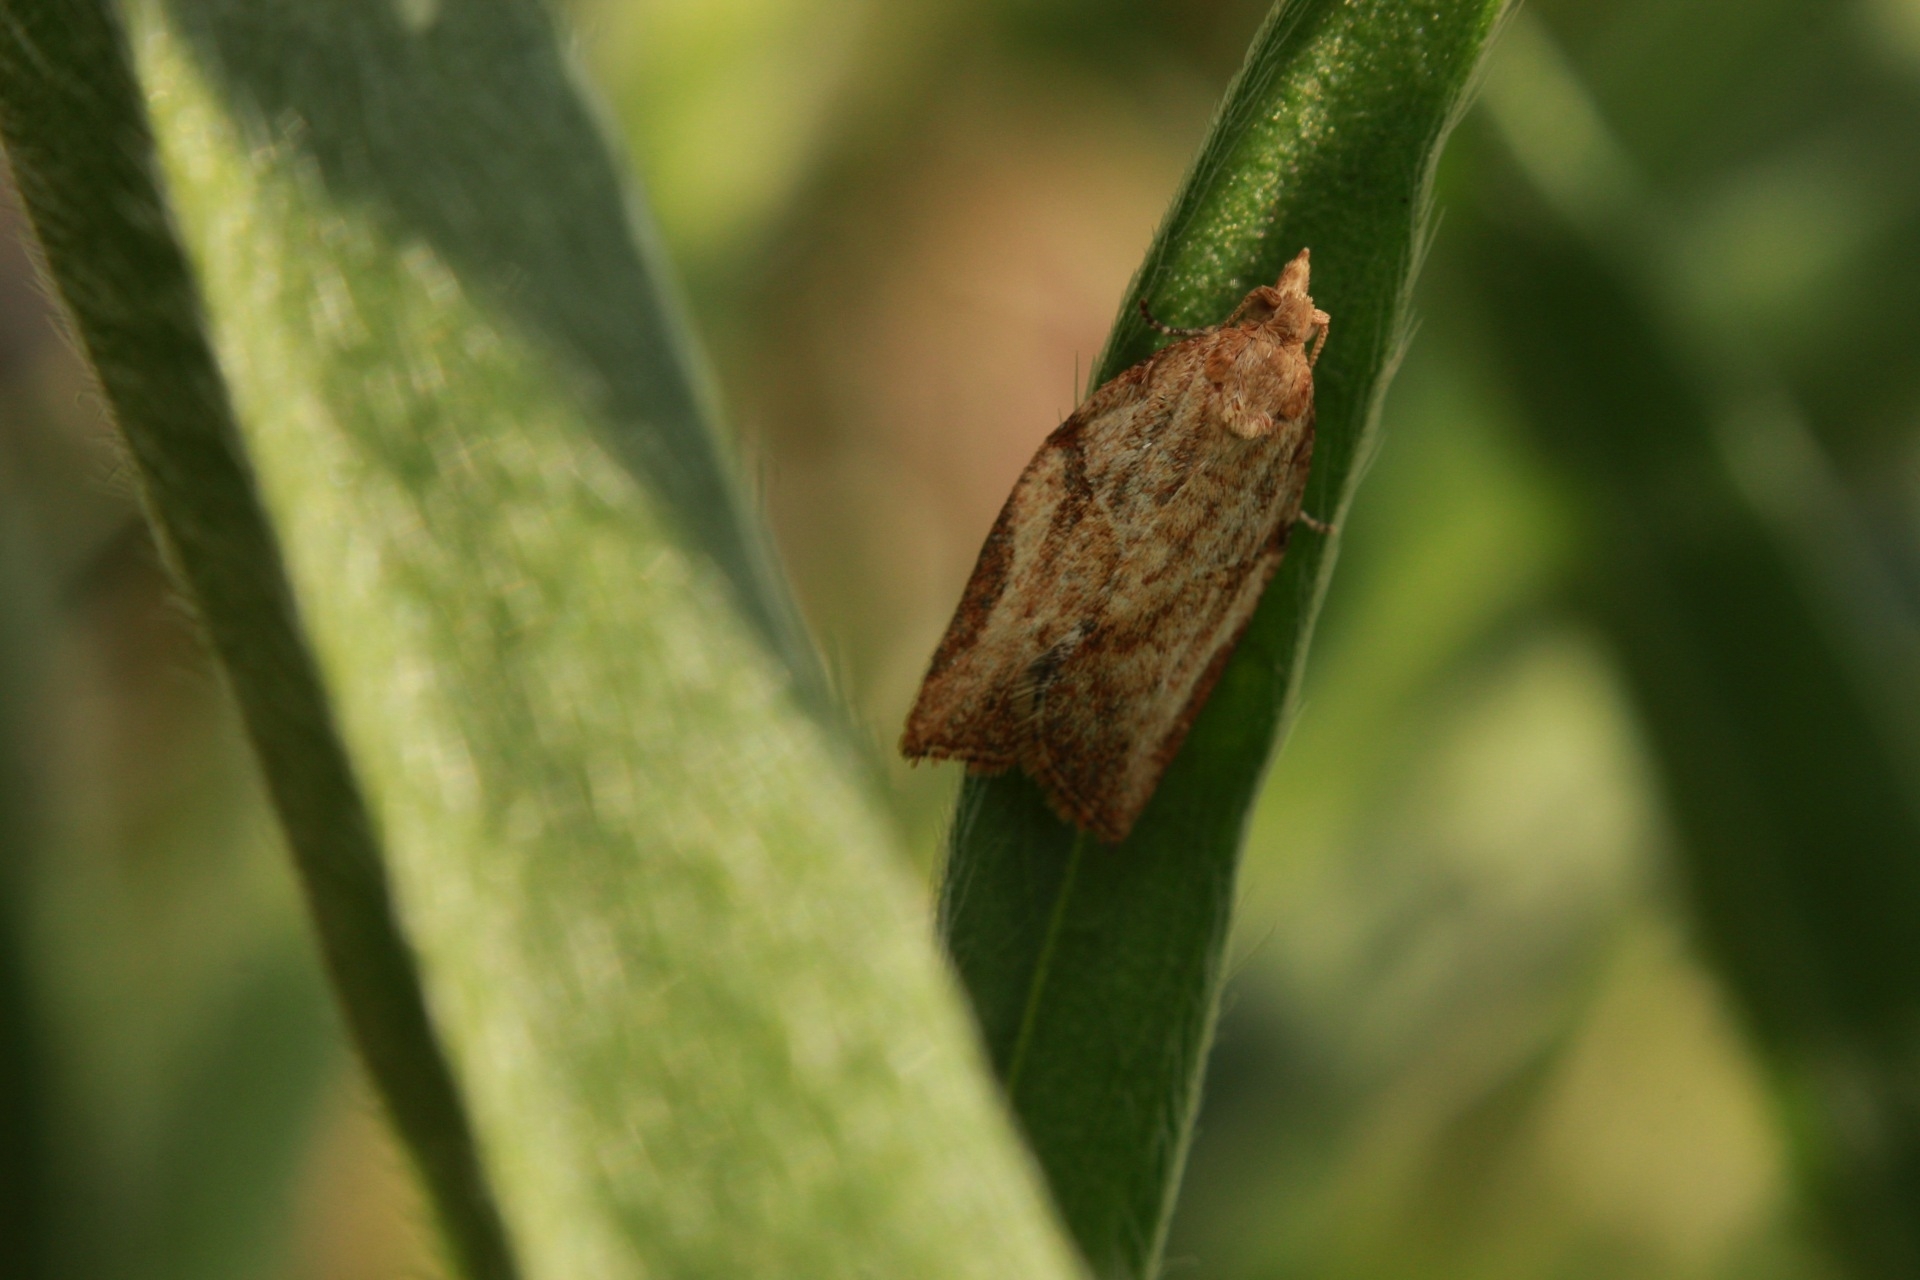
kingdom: Animalia
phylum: Arthropoda
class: Insecta
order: Lepidoptera
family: Tortricidae
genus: Epiphyas
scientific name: Epiphyas postvittana
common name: Light brown apple moth
